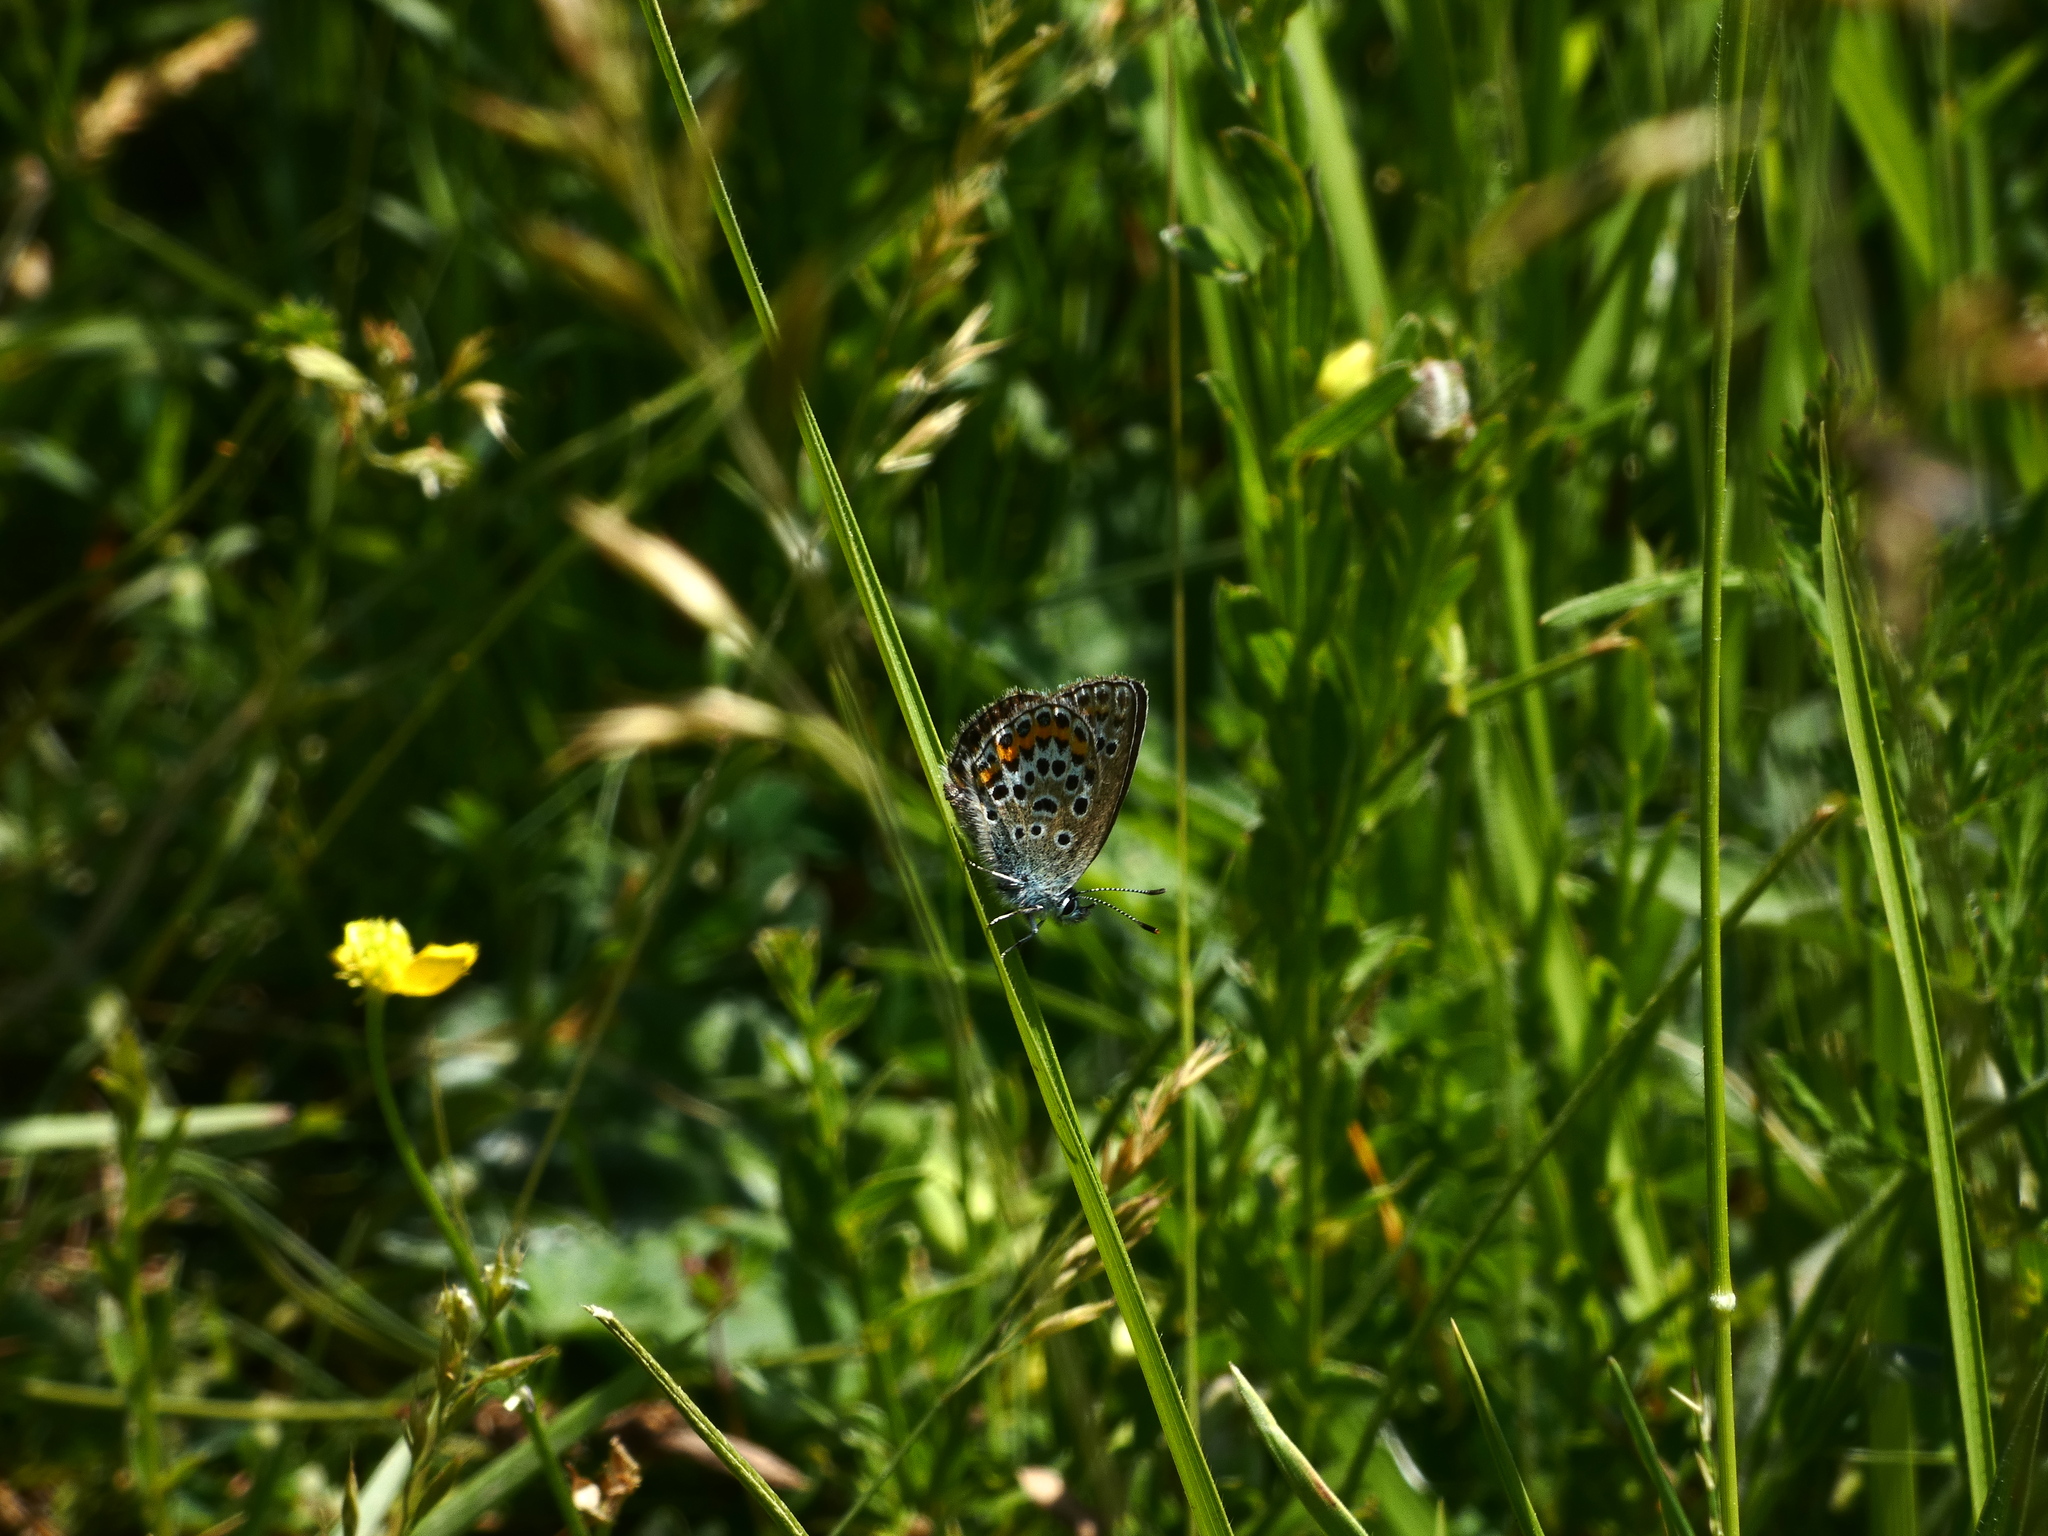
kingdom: Animalia
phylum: Arthropoda
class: Insecta
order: Lepidoptera
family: Lycaenidae
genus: Plebejus
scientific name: Plebejus argus
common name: Silver-studded blue
